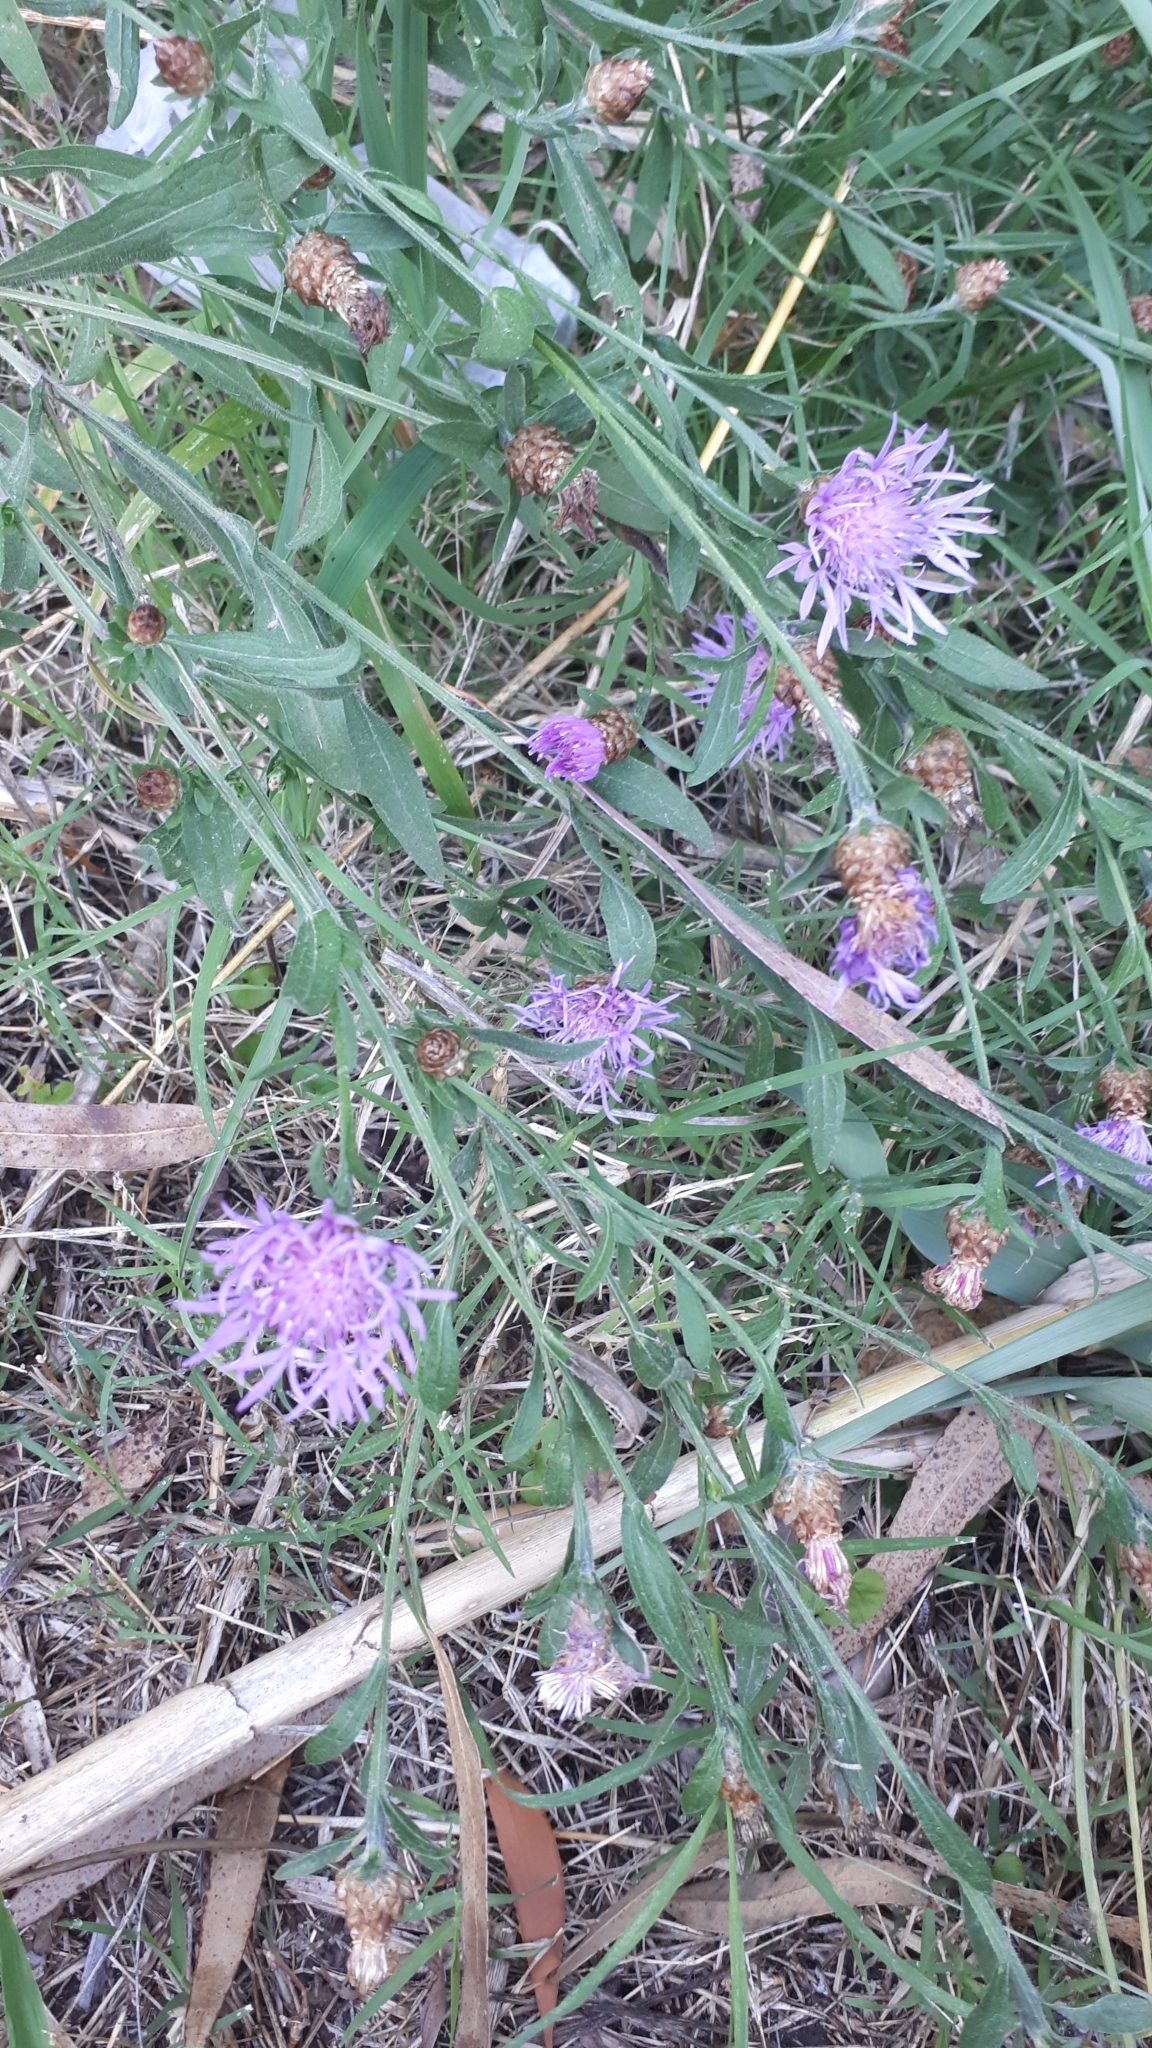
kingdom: Plantae
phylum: Tracheophyta
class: Magnoliopsida
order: Asterales
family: Asteraceae
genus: Centaurea
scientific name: Centaurea jacea
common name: Brown knapweed
